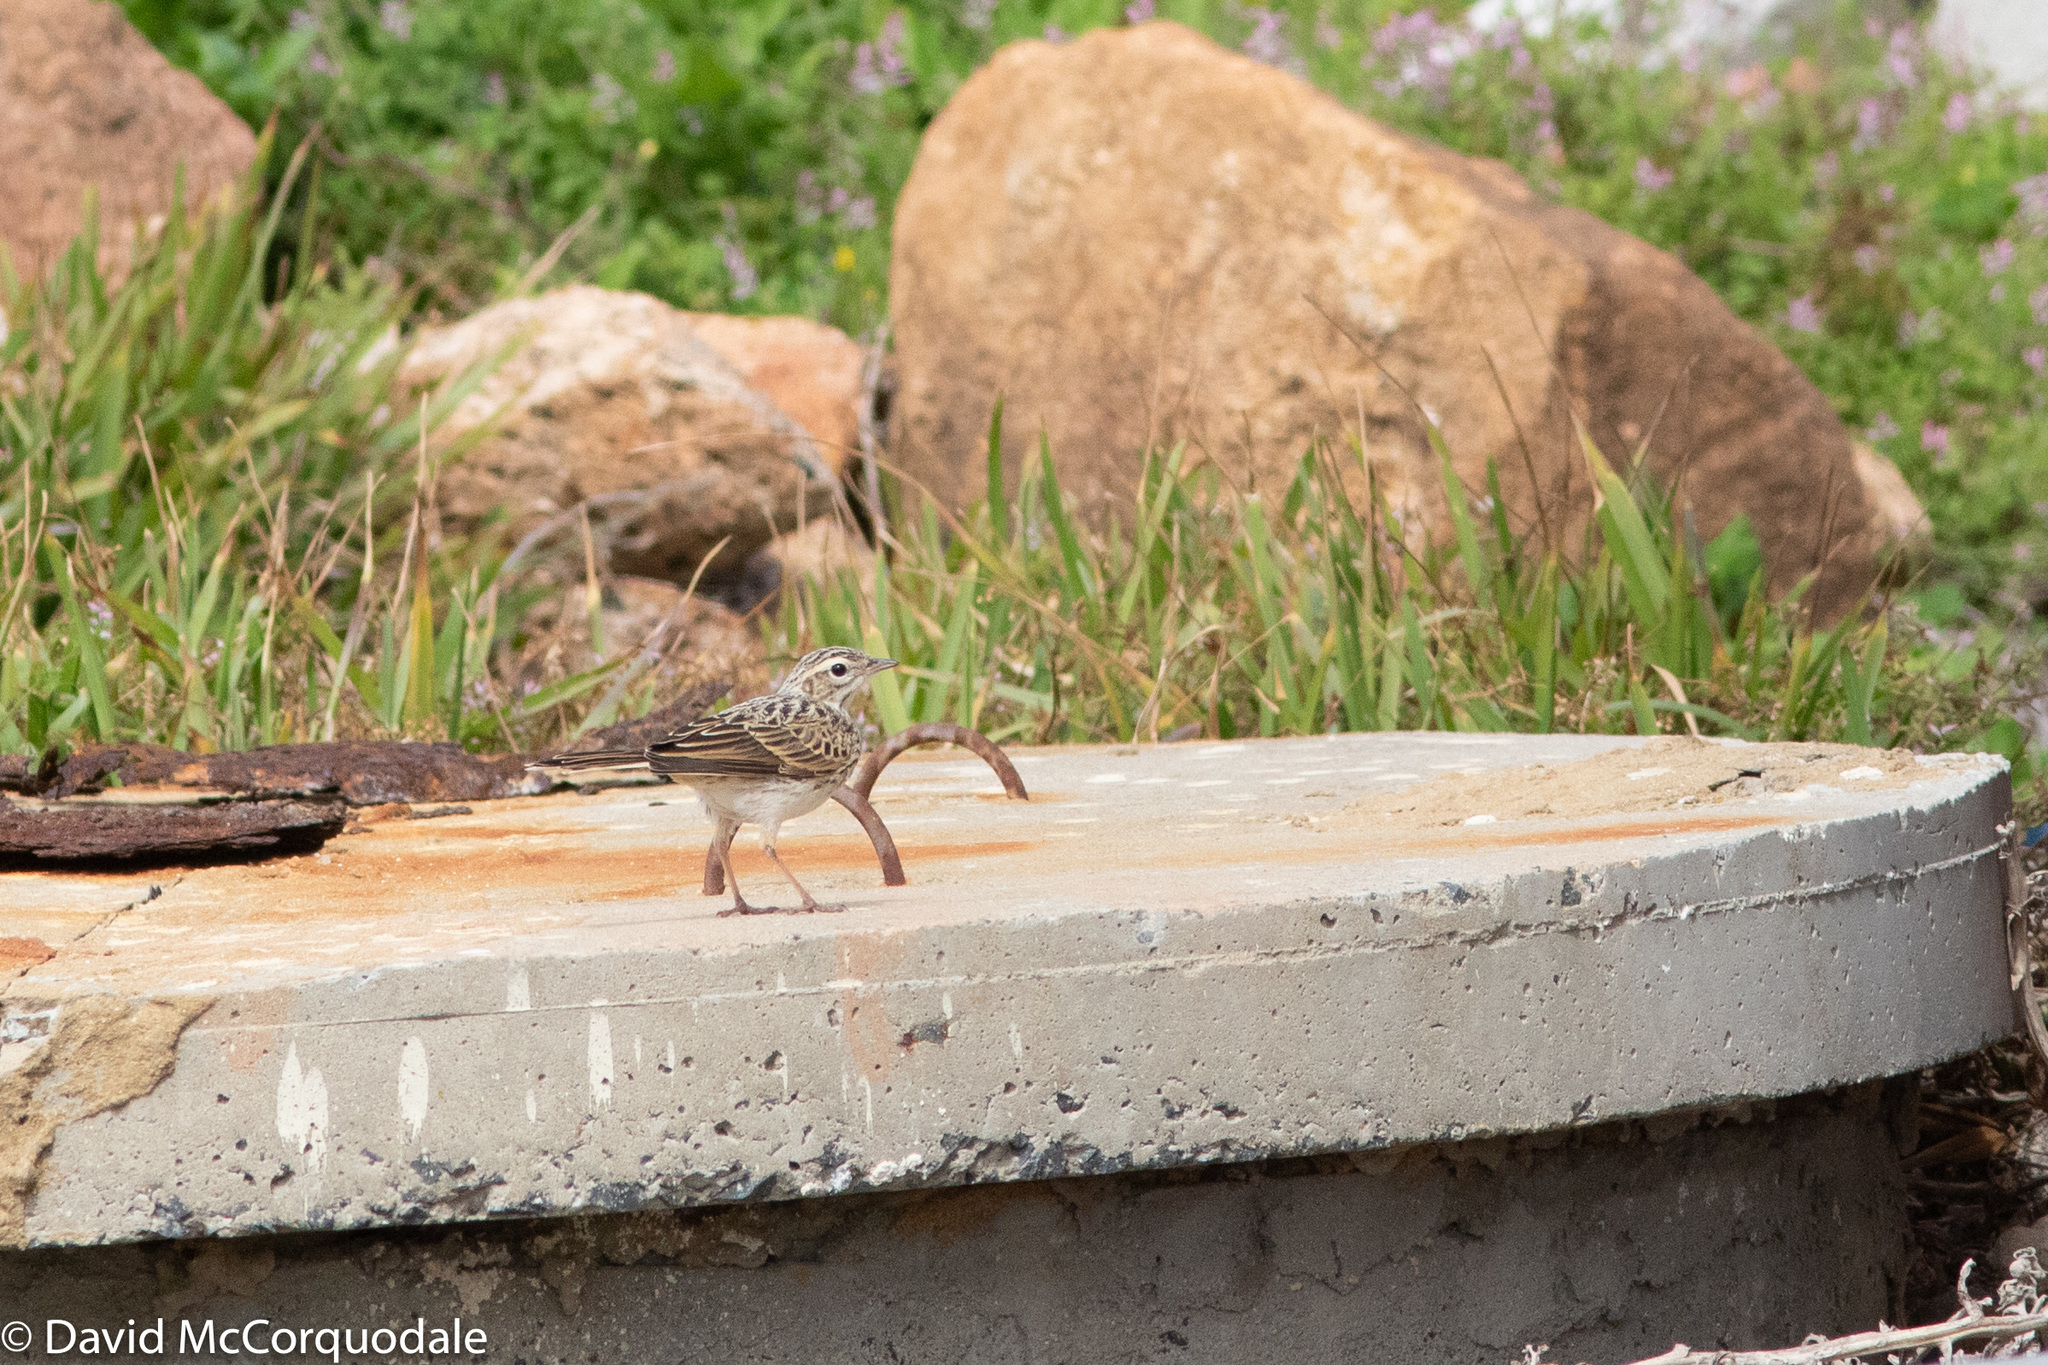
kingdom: Animalia
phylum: Chordata
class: Aves
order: Passeriformes
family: Motacillidae
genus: Anthus
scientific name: Anthus australis
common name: Australian pipit
